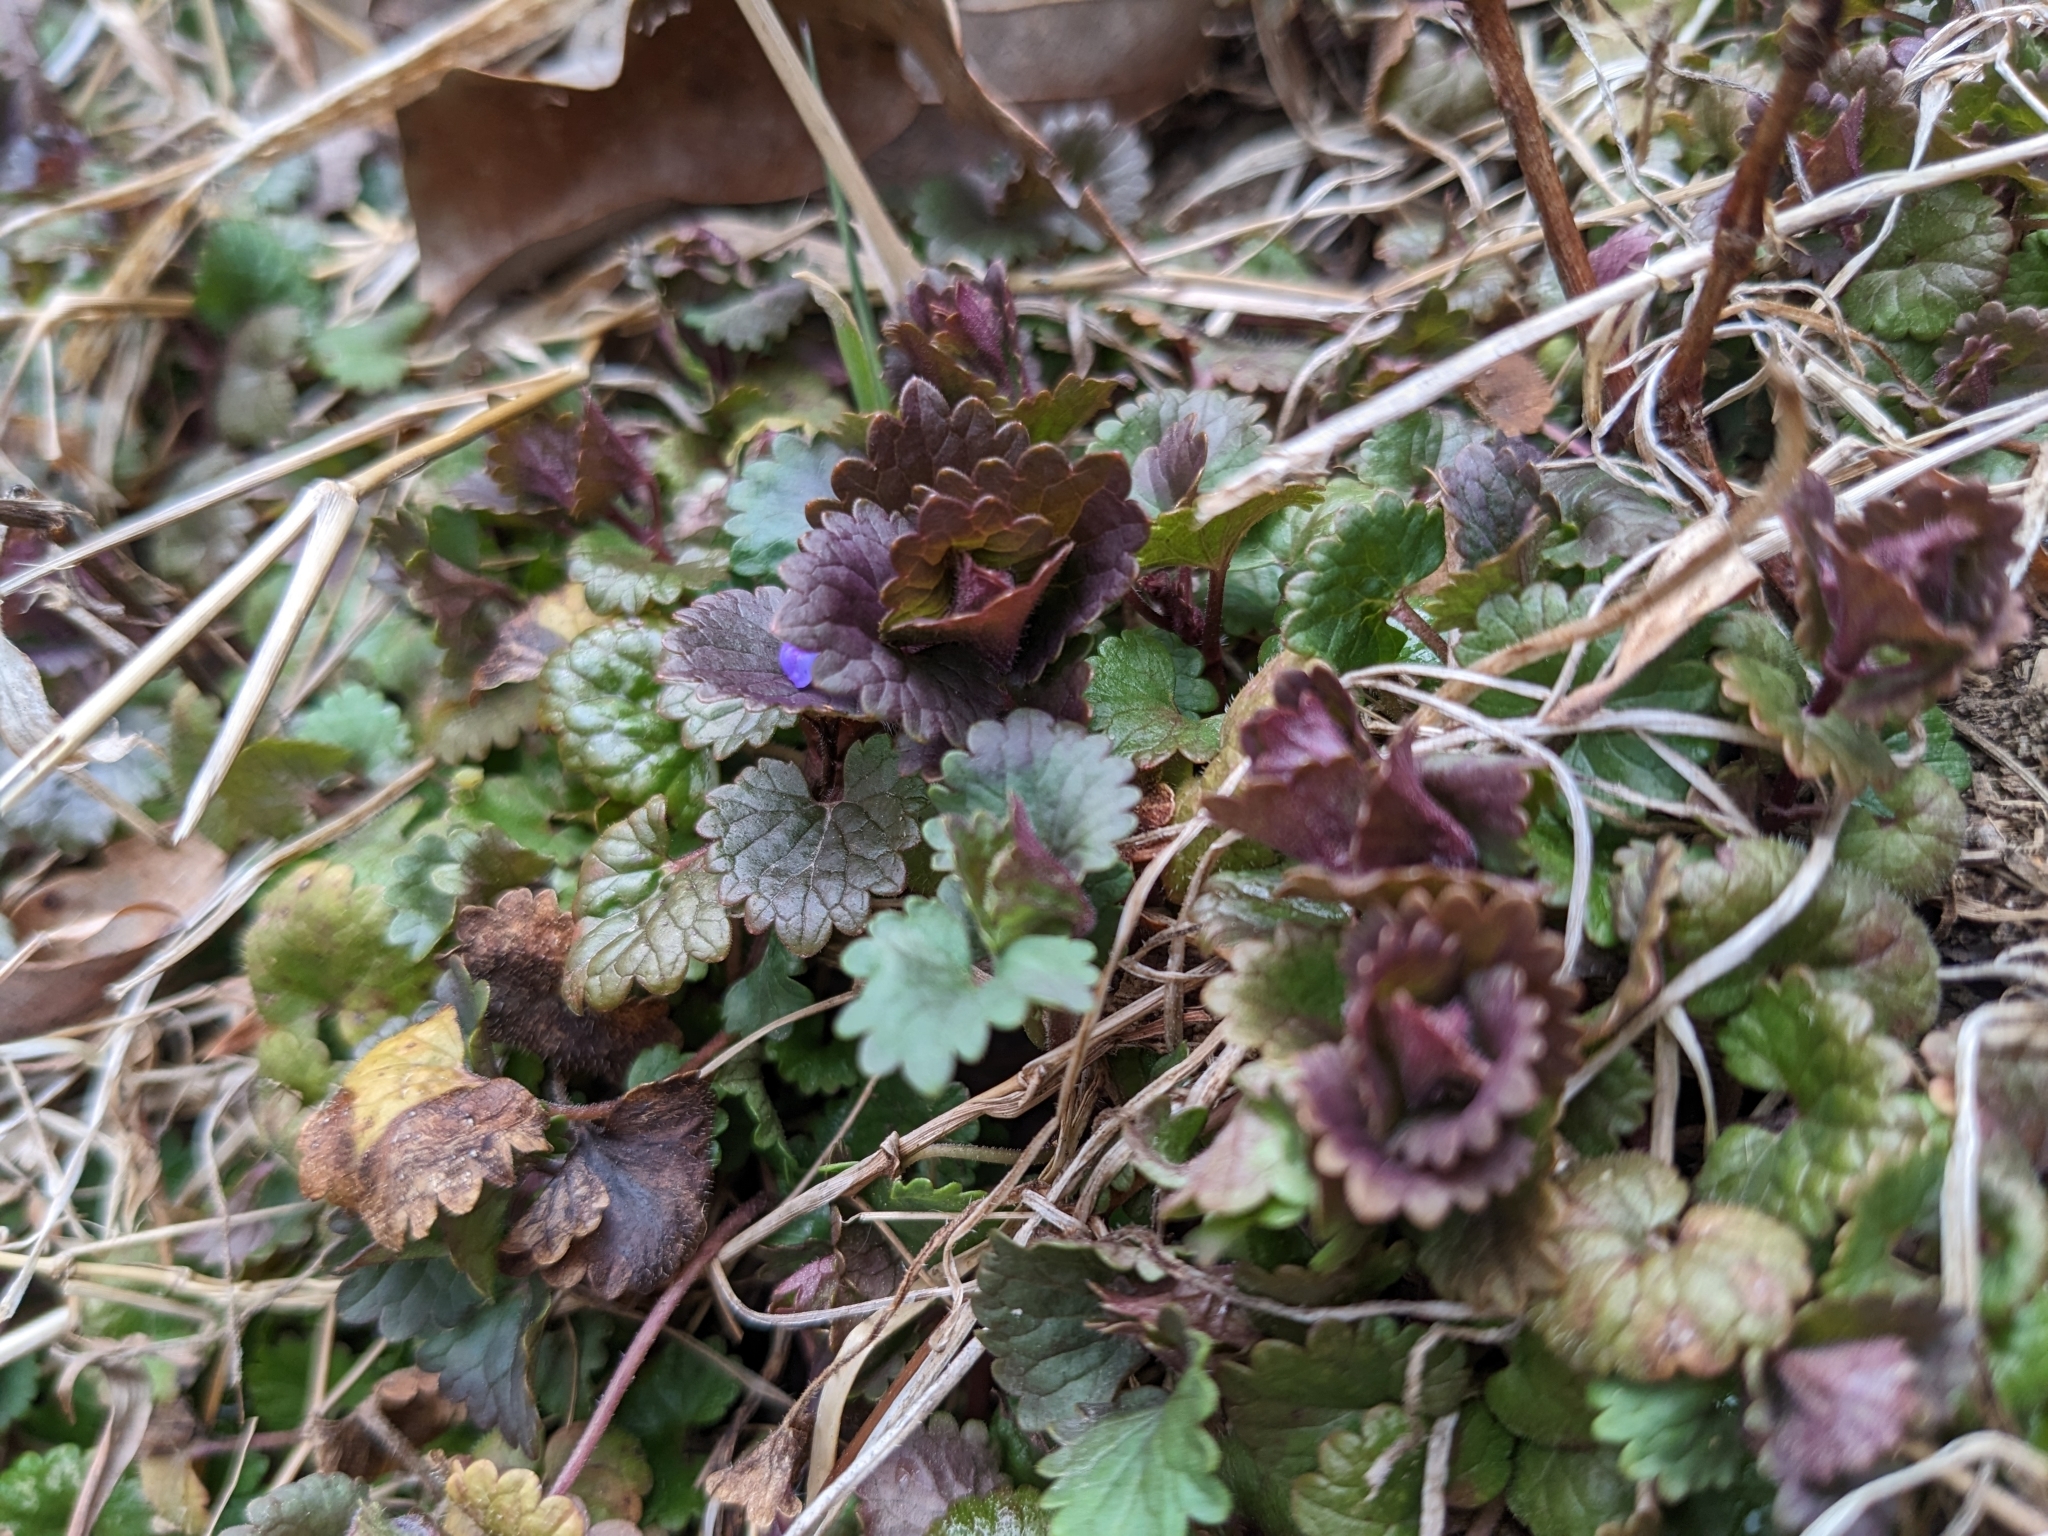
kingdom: Plantae
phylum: Tracheophyta
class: Magnoliopsida
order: Lamiales
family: Lamiaceae
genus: Glechoma
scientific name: Glechoma hederacea
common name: Ground ivy
